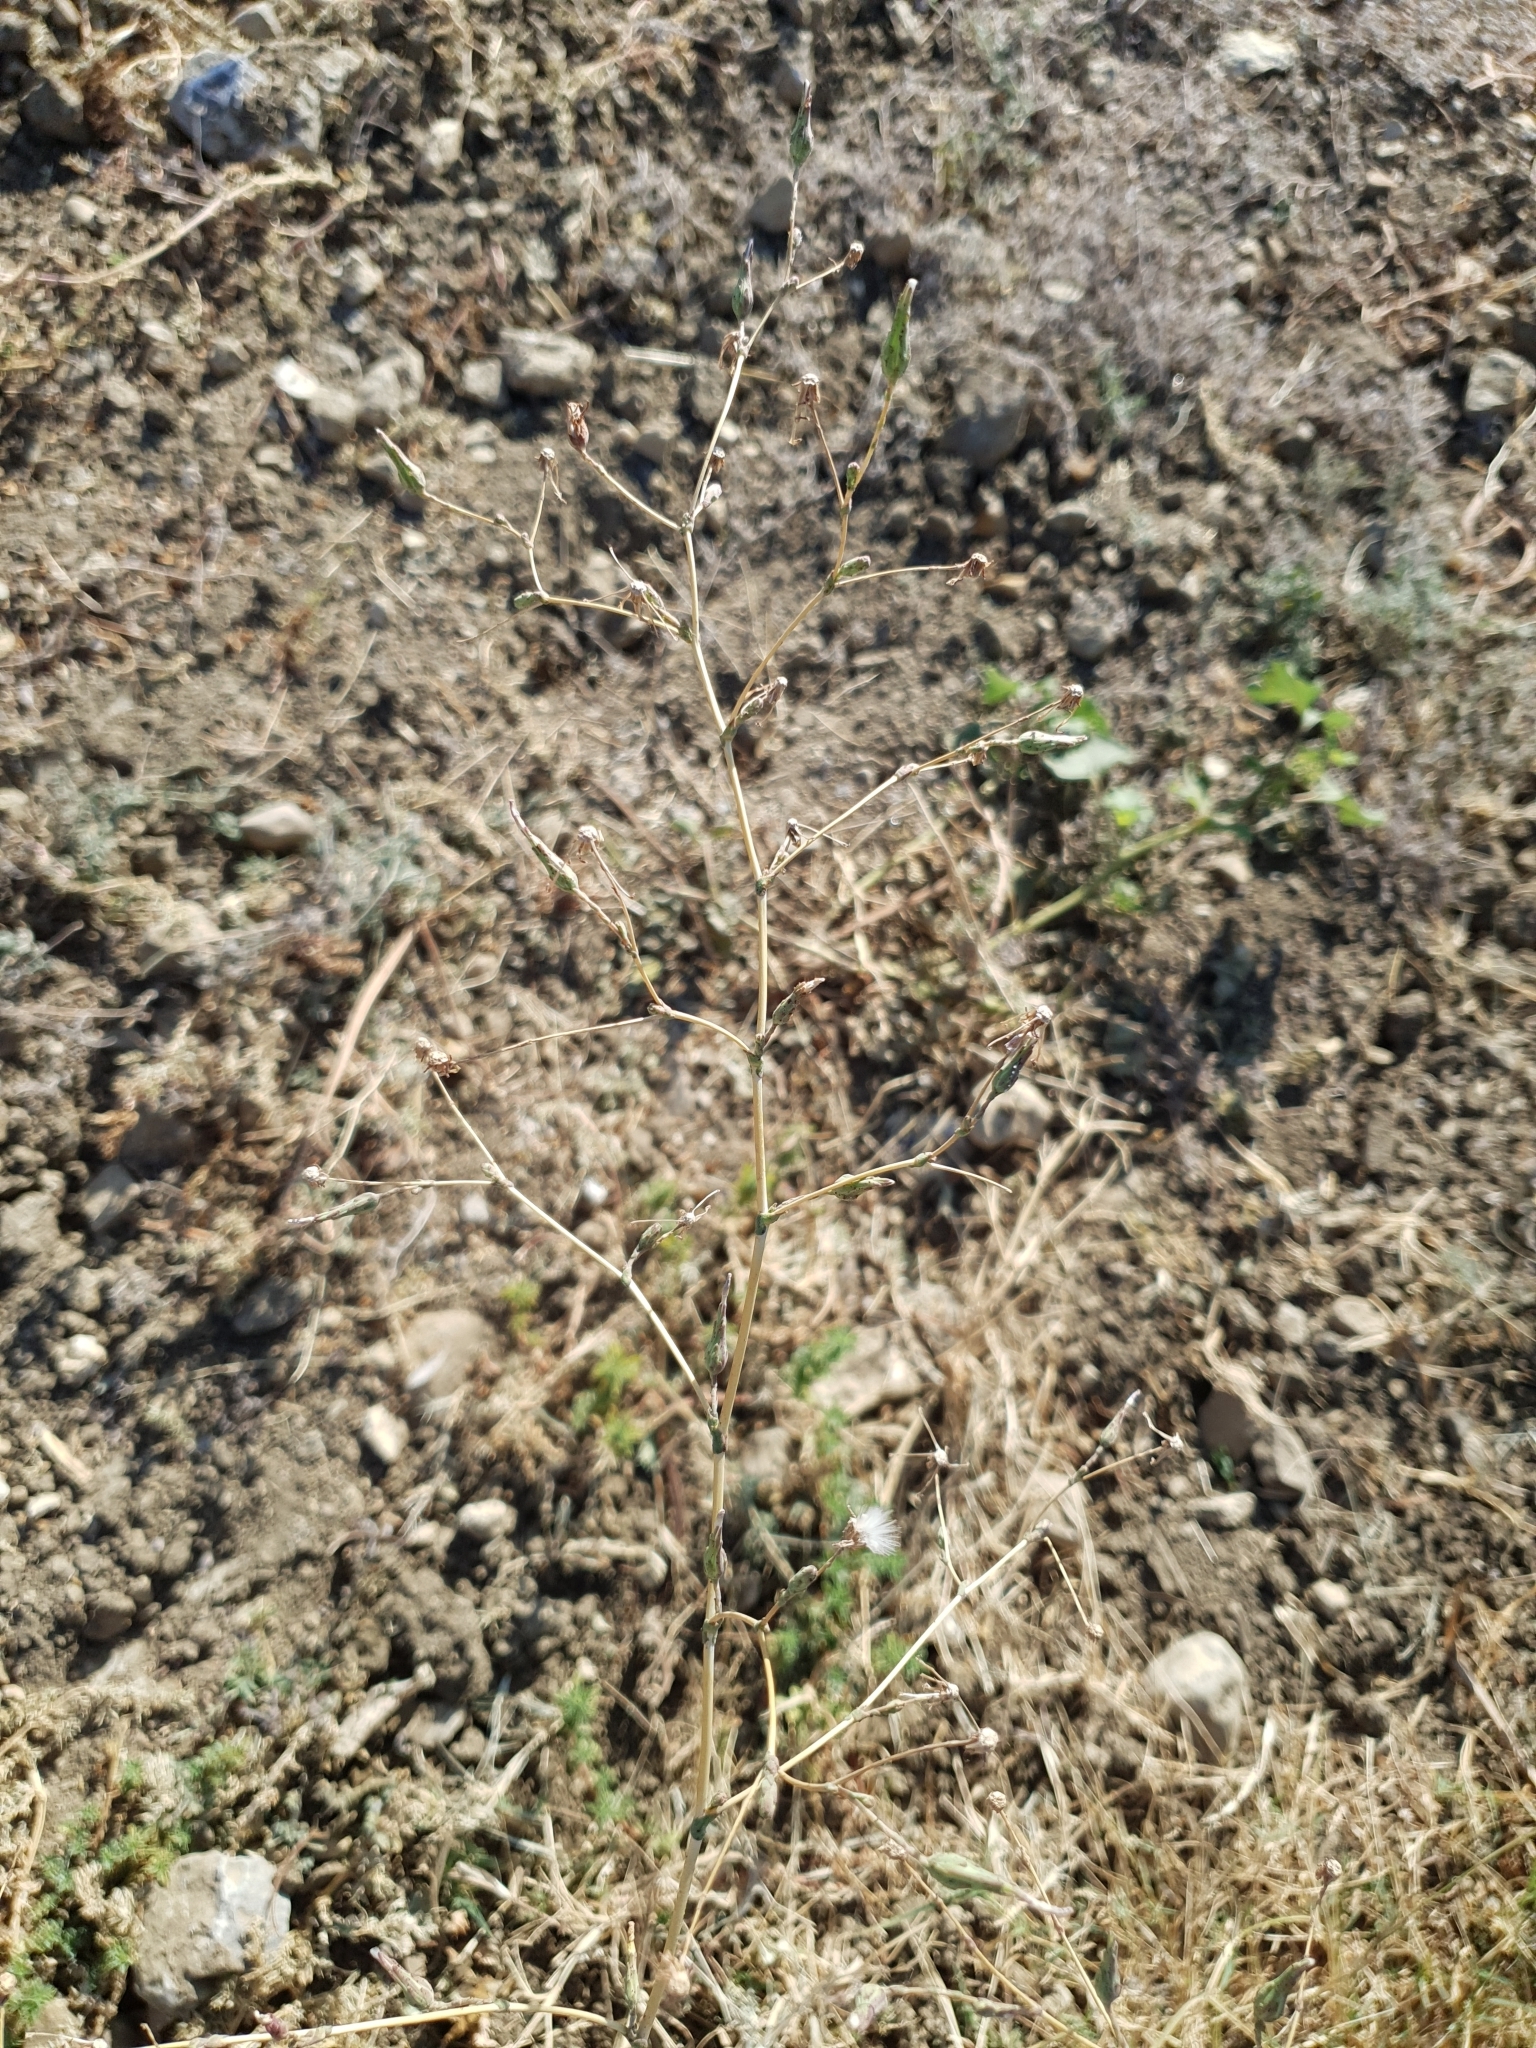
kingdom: Plantae
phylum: Tracheophyta
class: Magnoliopsida
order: Asterales
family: Asteraceae
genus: Lactuca
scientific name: Lactuca serriola
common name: Prickly lettuce
